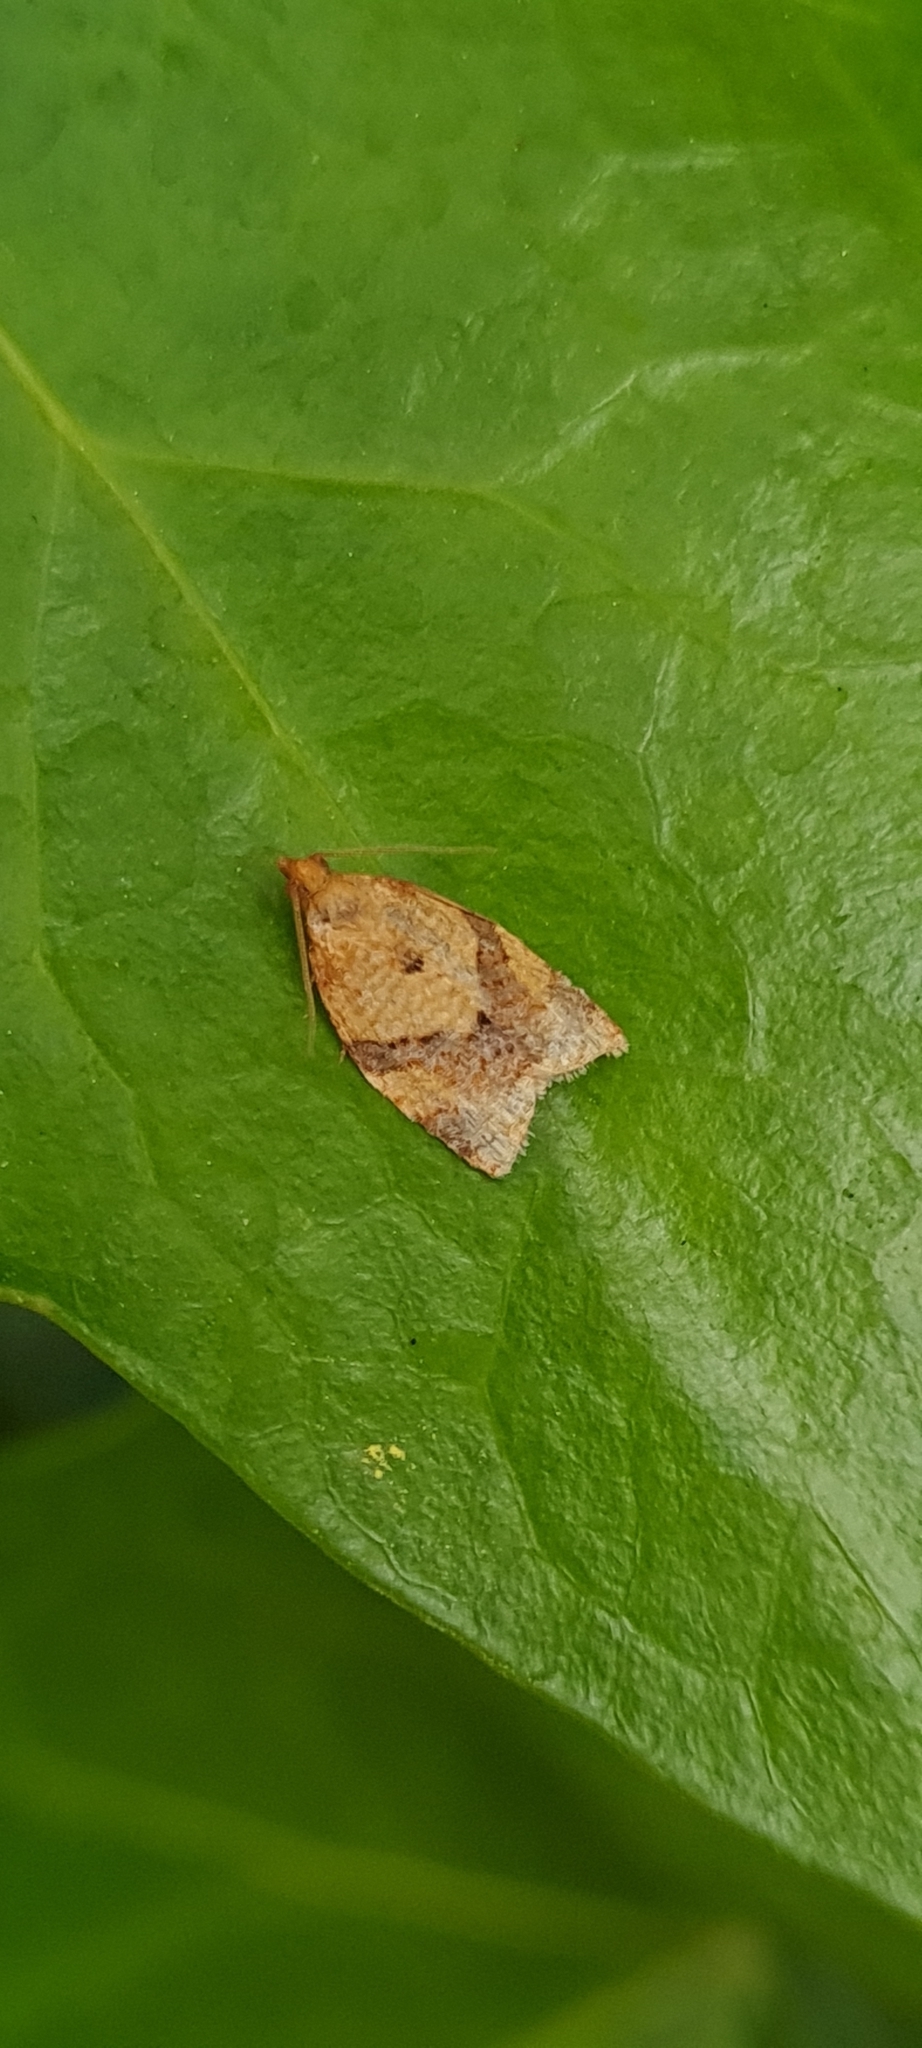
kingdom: Animalia
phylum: Arthropoda
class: Insecta
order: Lepidoptera
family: Tortricidae
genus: Clepsis
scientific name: Clepsis consimilana
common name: Privet tortrix
